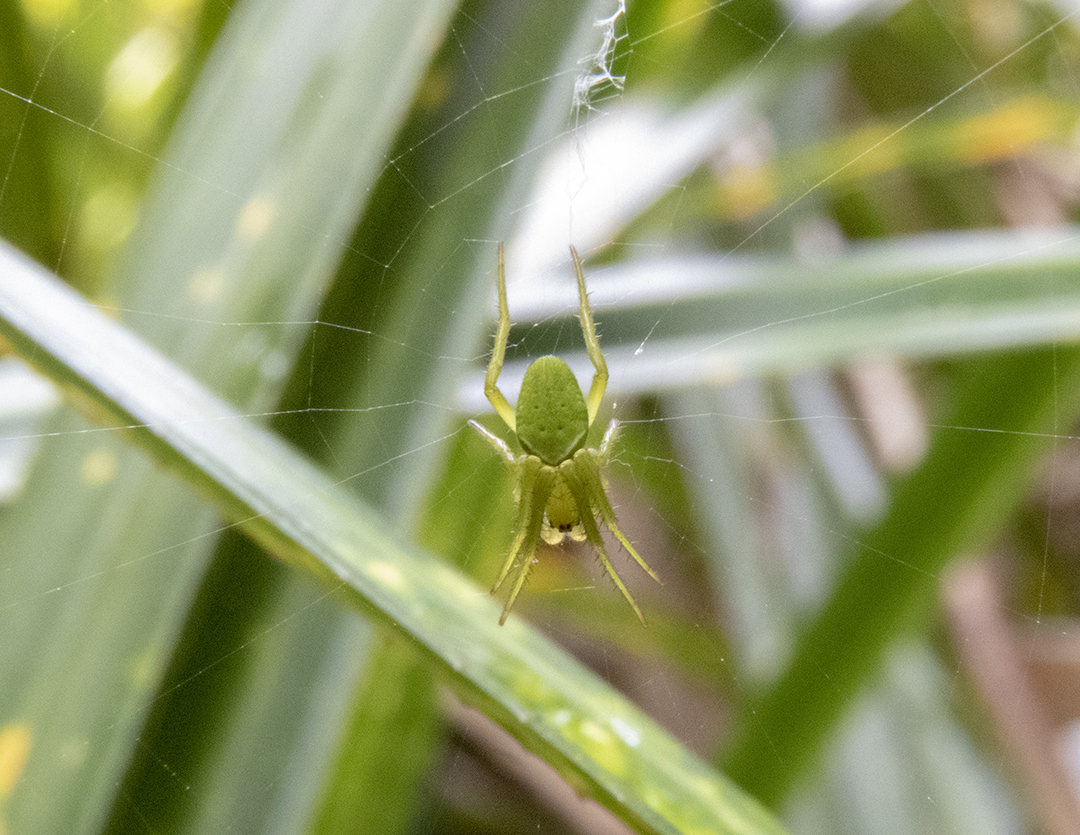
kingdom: Animalia
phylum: Arthropoda
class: Arachnida
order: Araneae
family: Araneidae
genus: Colaranea
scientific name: Colaranea viriditas
